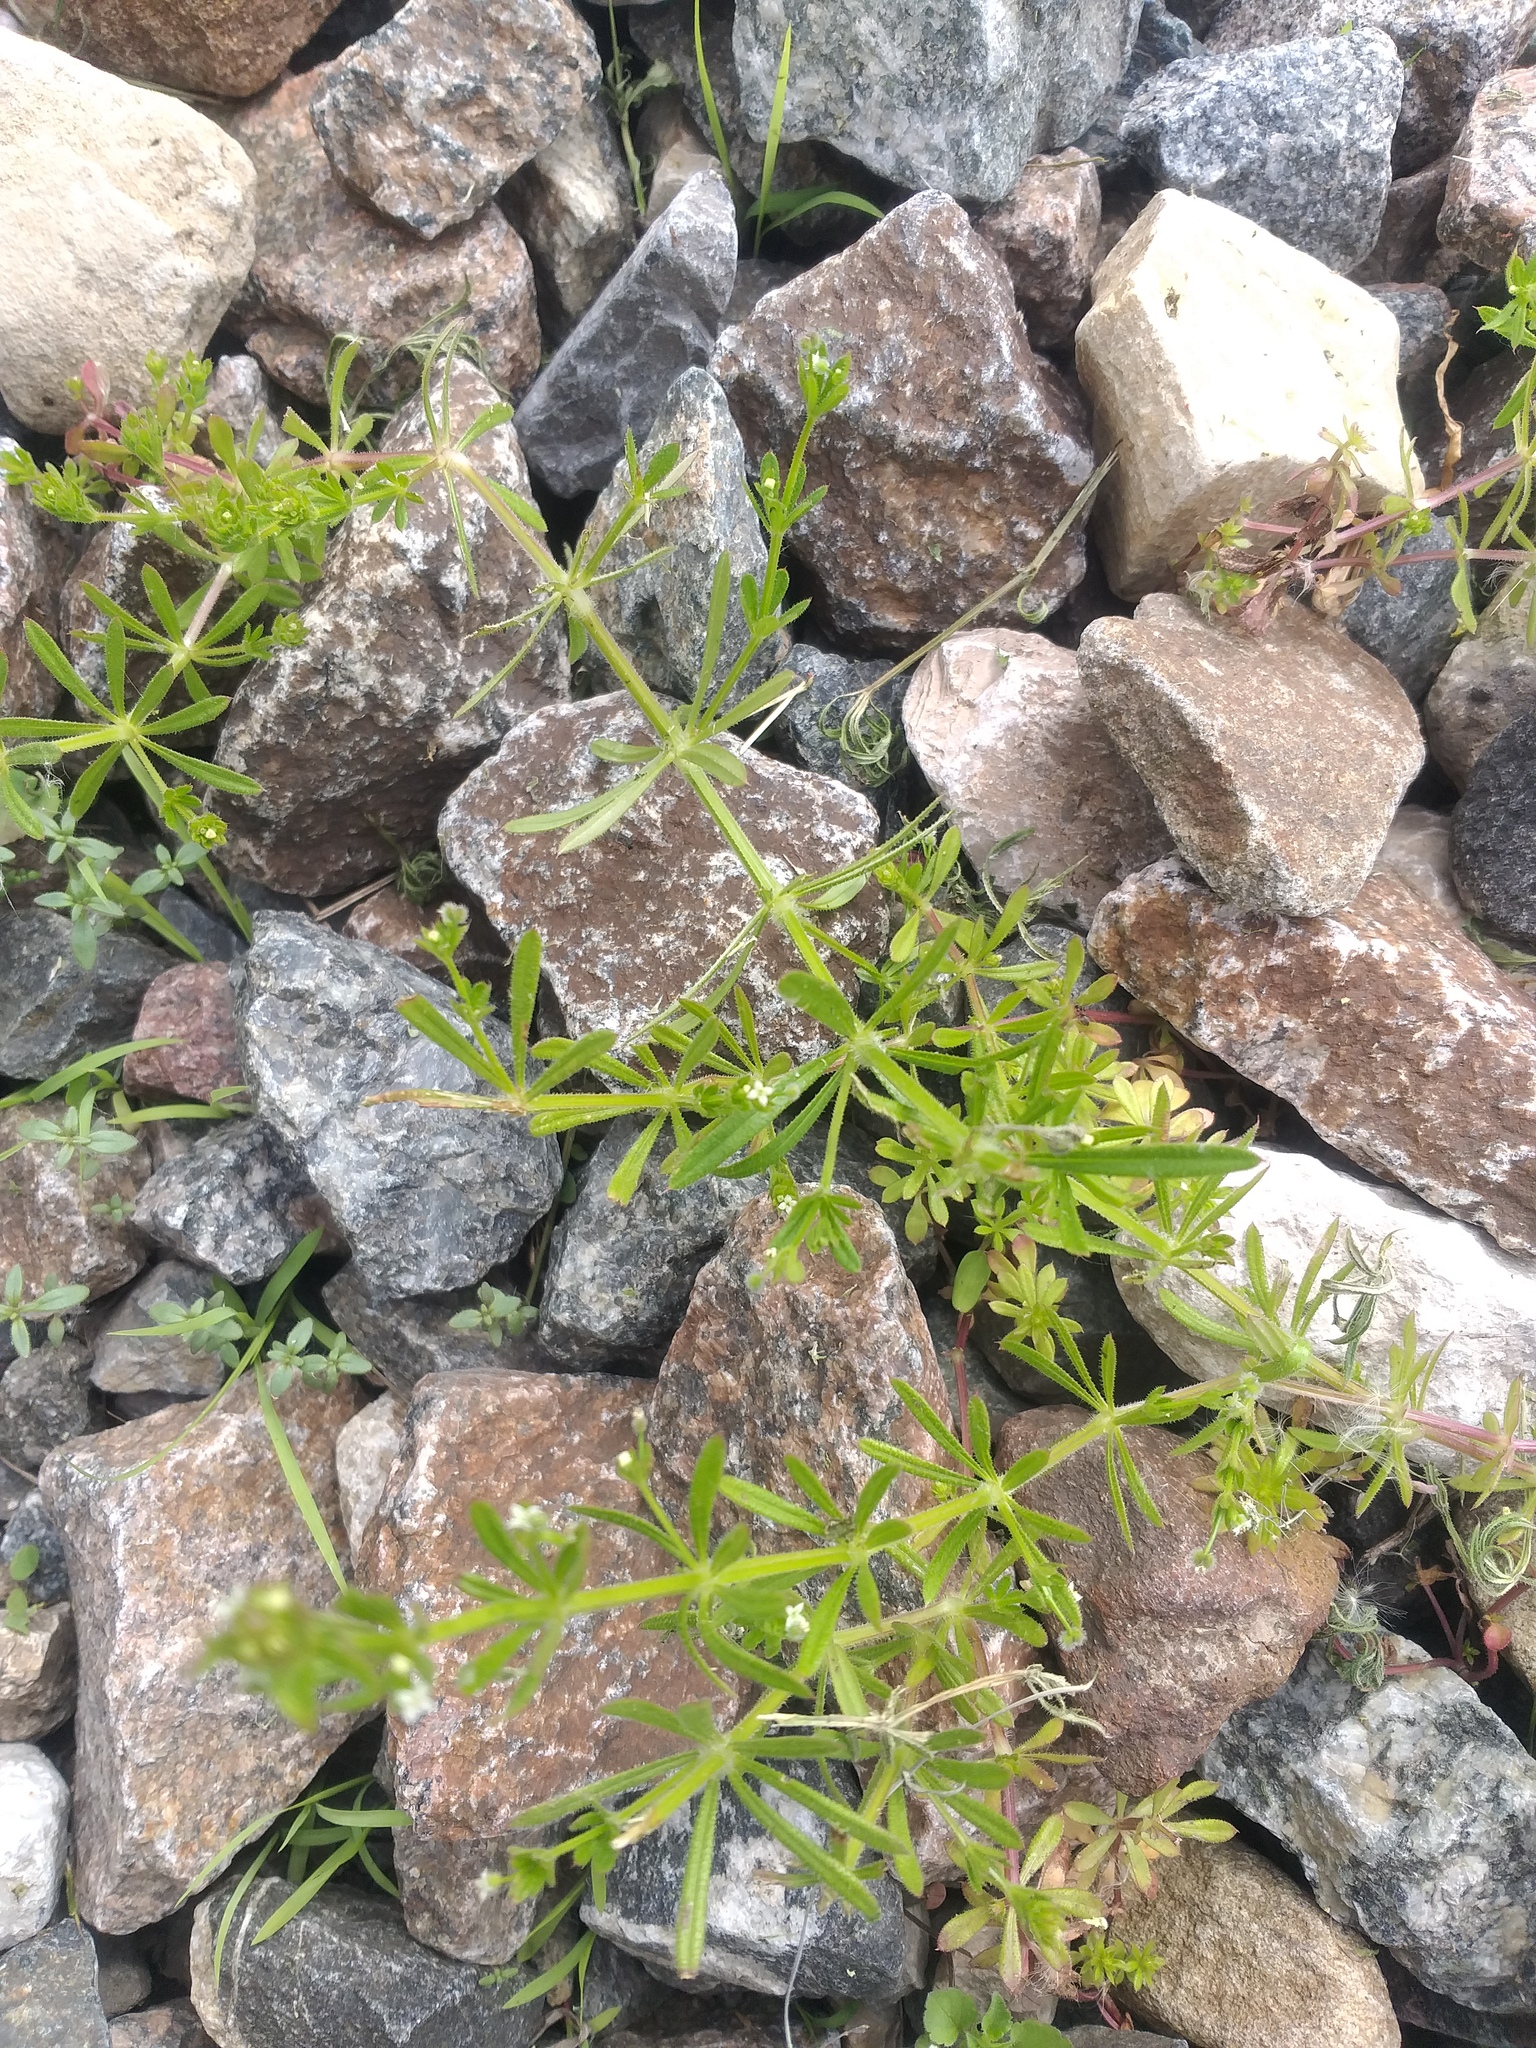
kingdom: Plantae
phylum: Tracheophyta
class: Magnoliopsida
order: Gentianales
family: Rubiaceae
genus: Galium
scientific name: Galium aparine
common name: Cleavers
